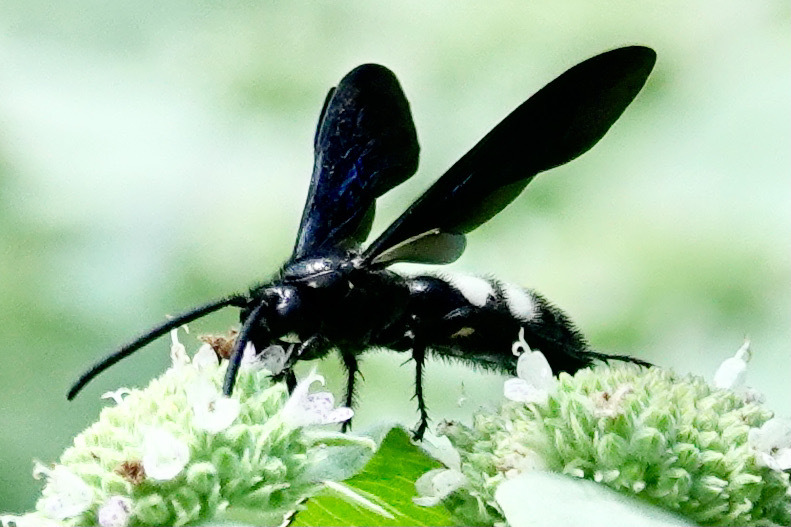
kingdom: Animalia
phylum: Arthropoda
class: Insecta
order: Hymenoptera
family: Scoliidae
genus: Scolia
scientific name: Scolia bicincta
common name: Double-banded scoliid wasp
